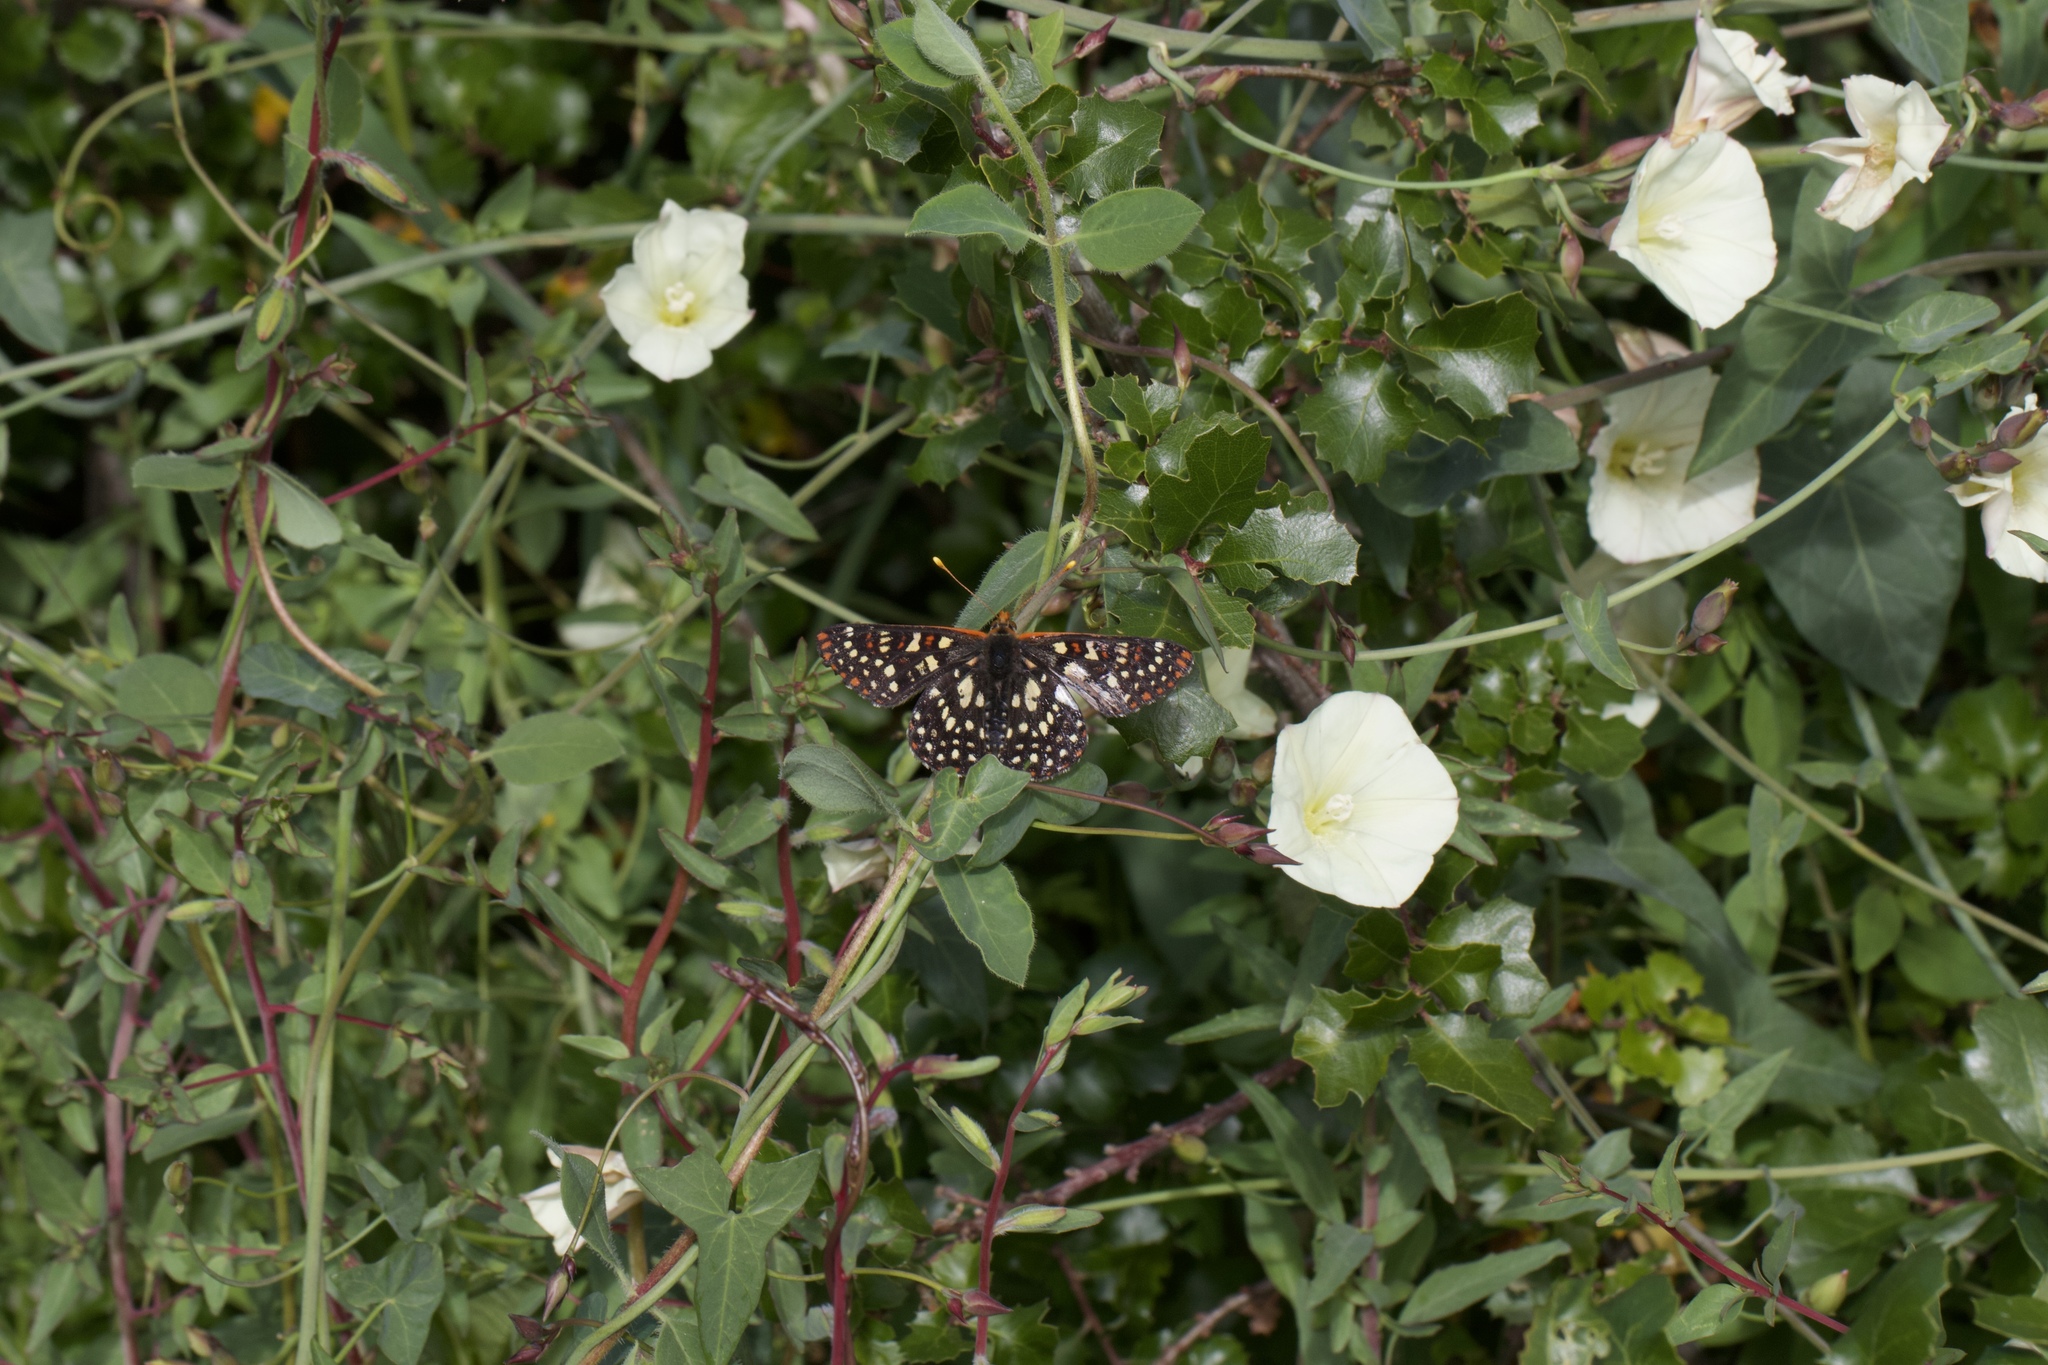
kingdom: Animalia
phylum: Arthropoda
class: Insecta
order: Lepidoptera
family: Nymphalidae
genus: Occidryas
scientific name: Occidryas chalcedona
